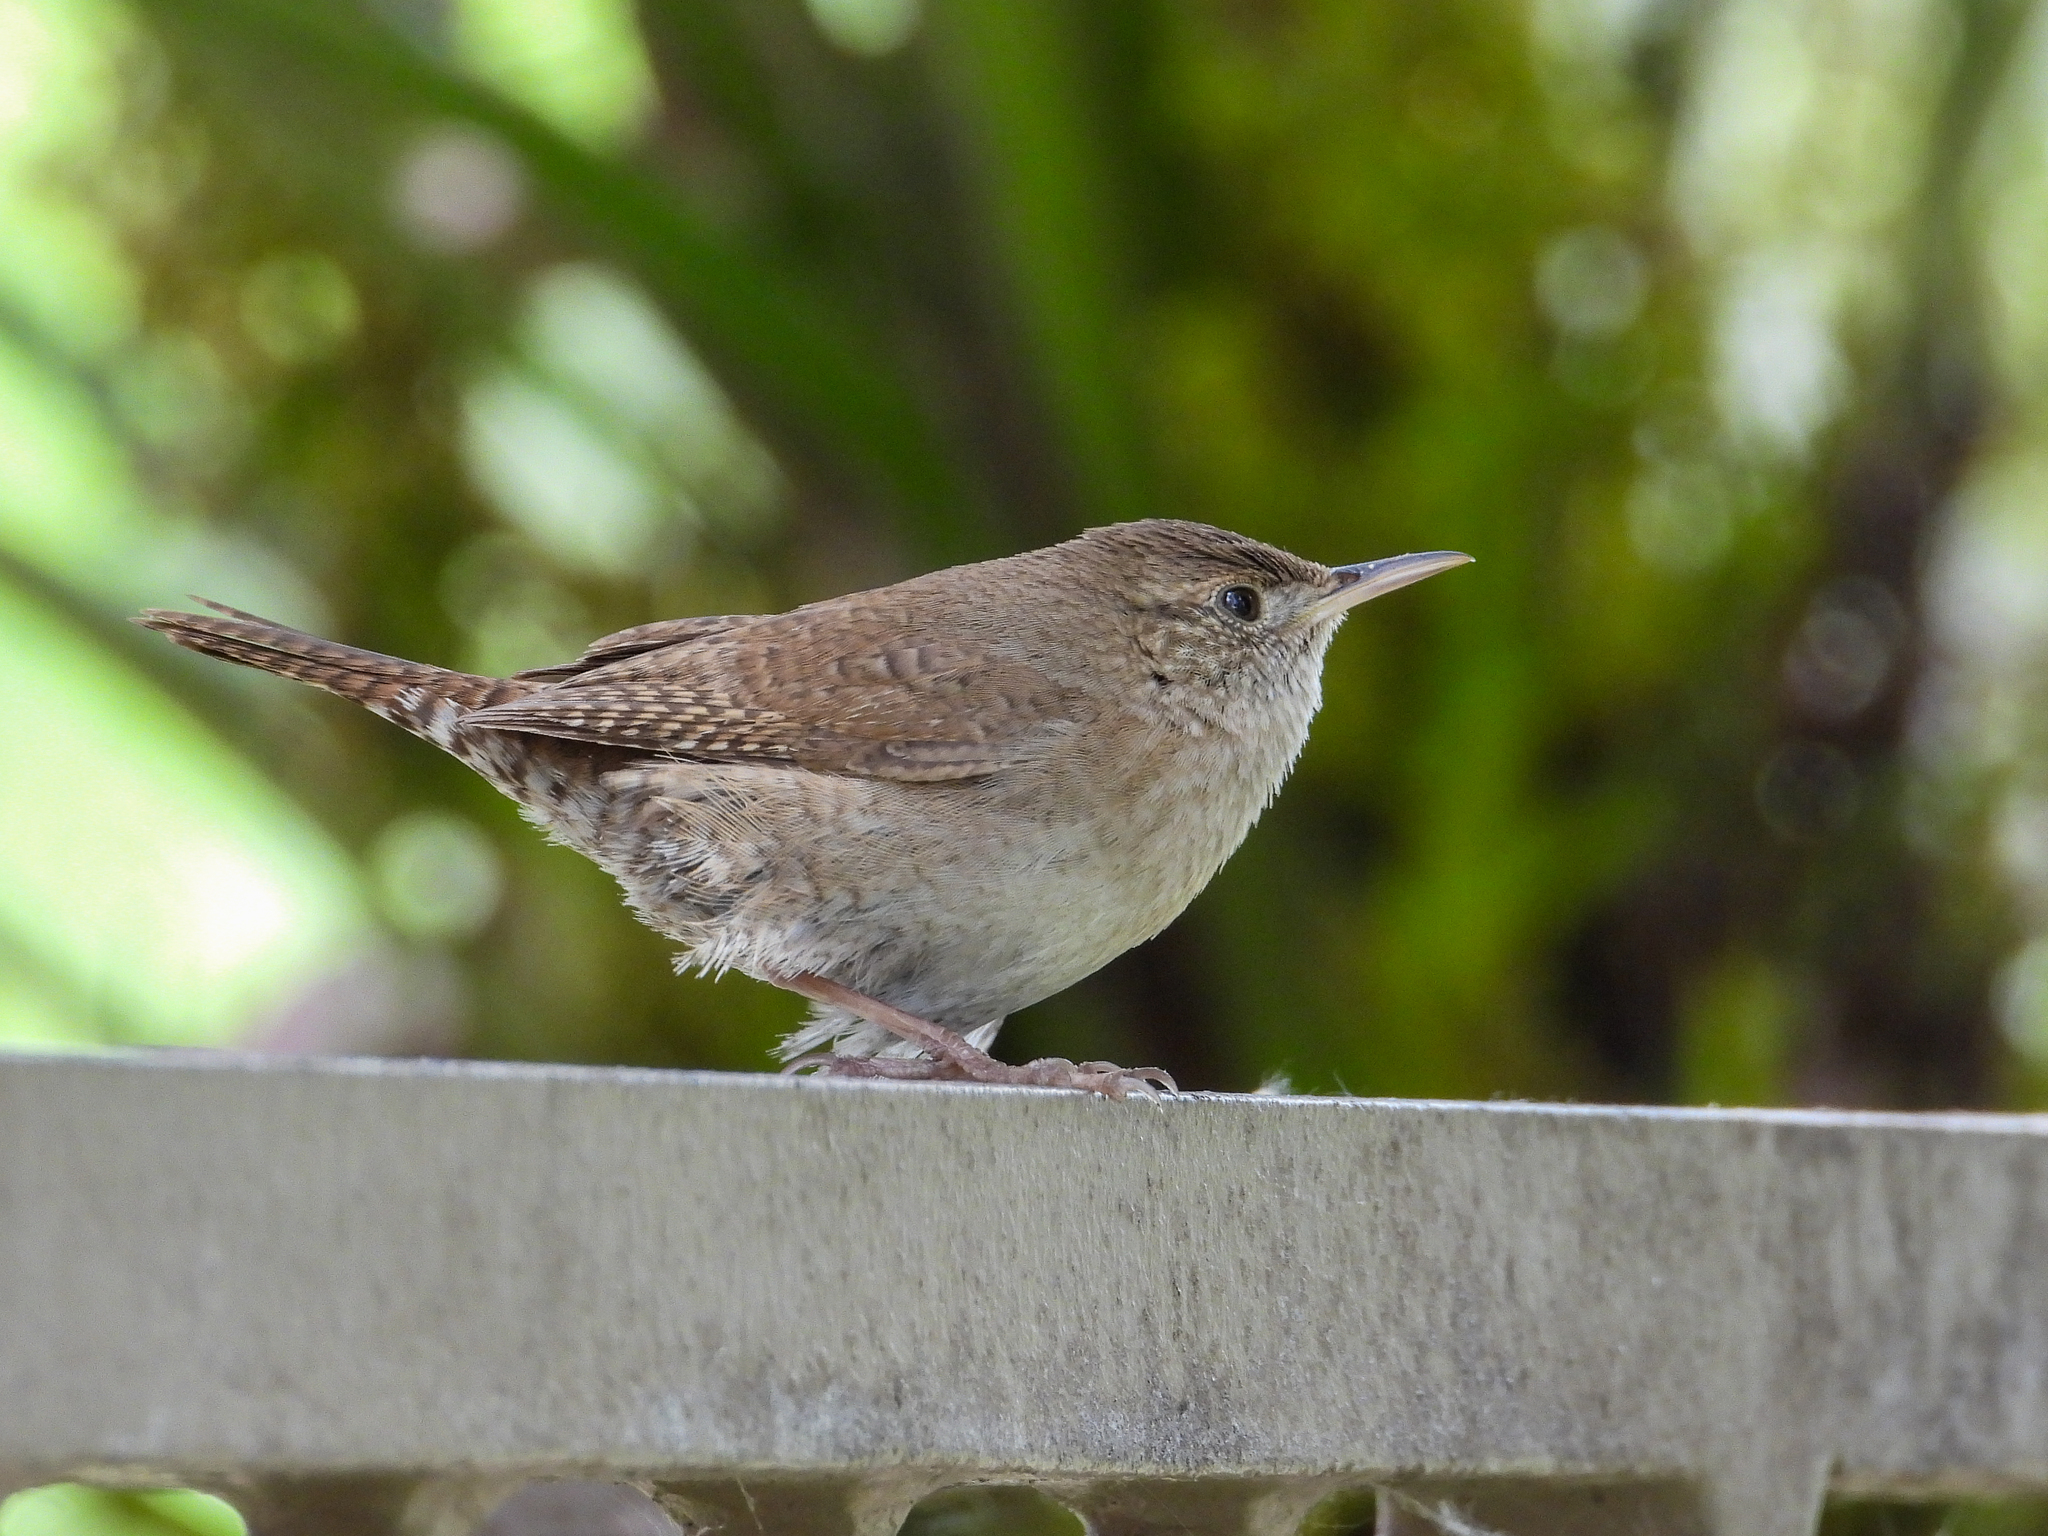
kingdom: Animalia
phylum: Chordata
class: Aves
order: Passeriformes
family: Troglodytidae
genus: Troglodytes
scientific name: Troglodytes aedon
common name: House wren
